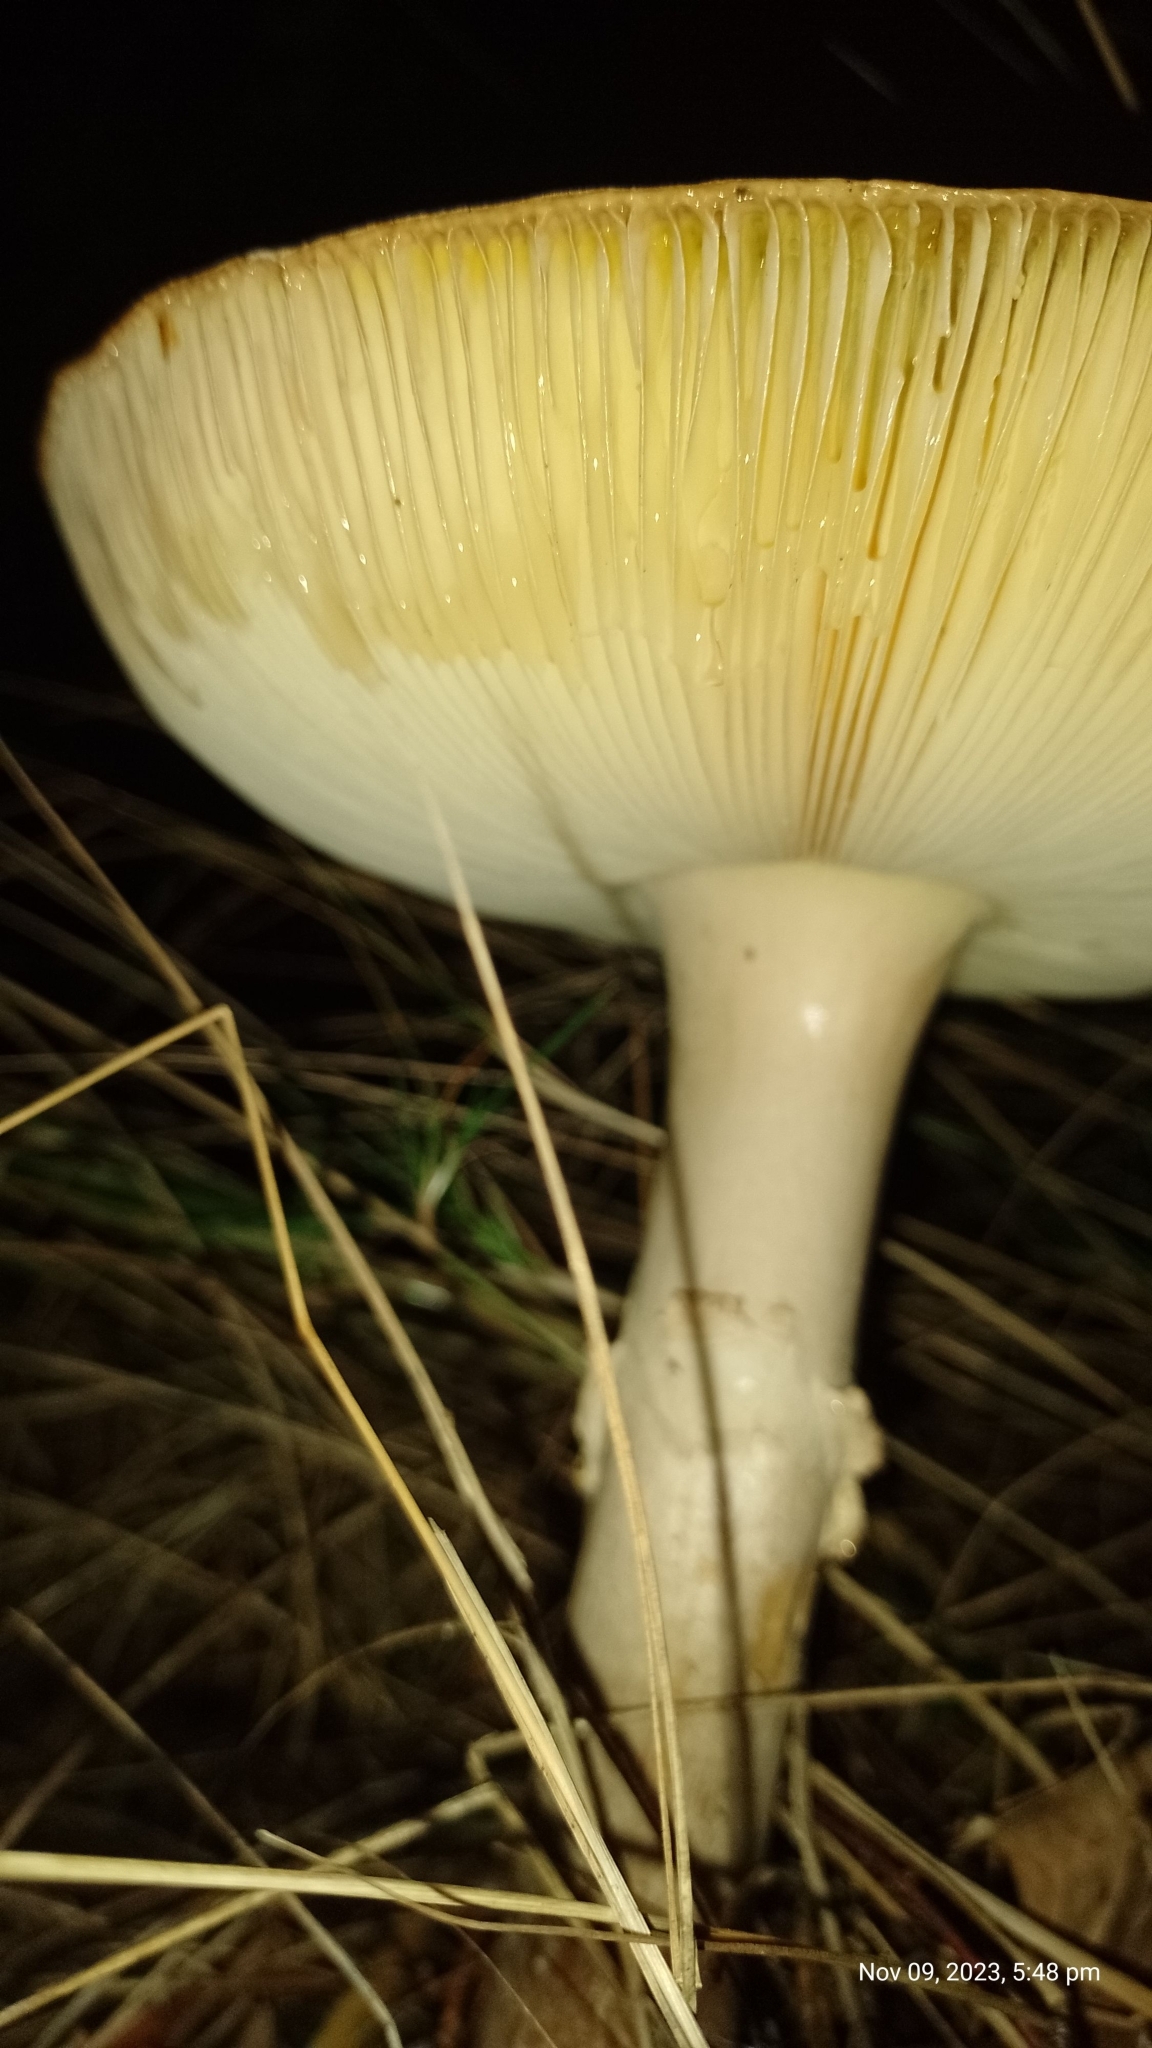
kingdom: Fungi
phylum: Basidiomycota
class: Agaricomycetes
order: Agaricales
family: Amanitaceae
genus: Amanita
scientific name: Amanita muscaria
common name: Fly agaric
